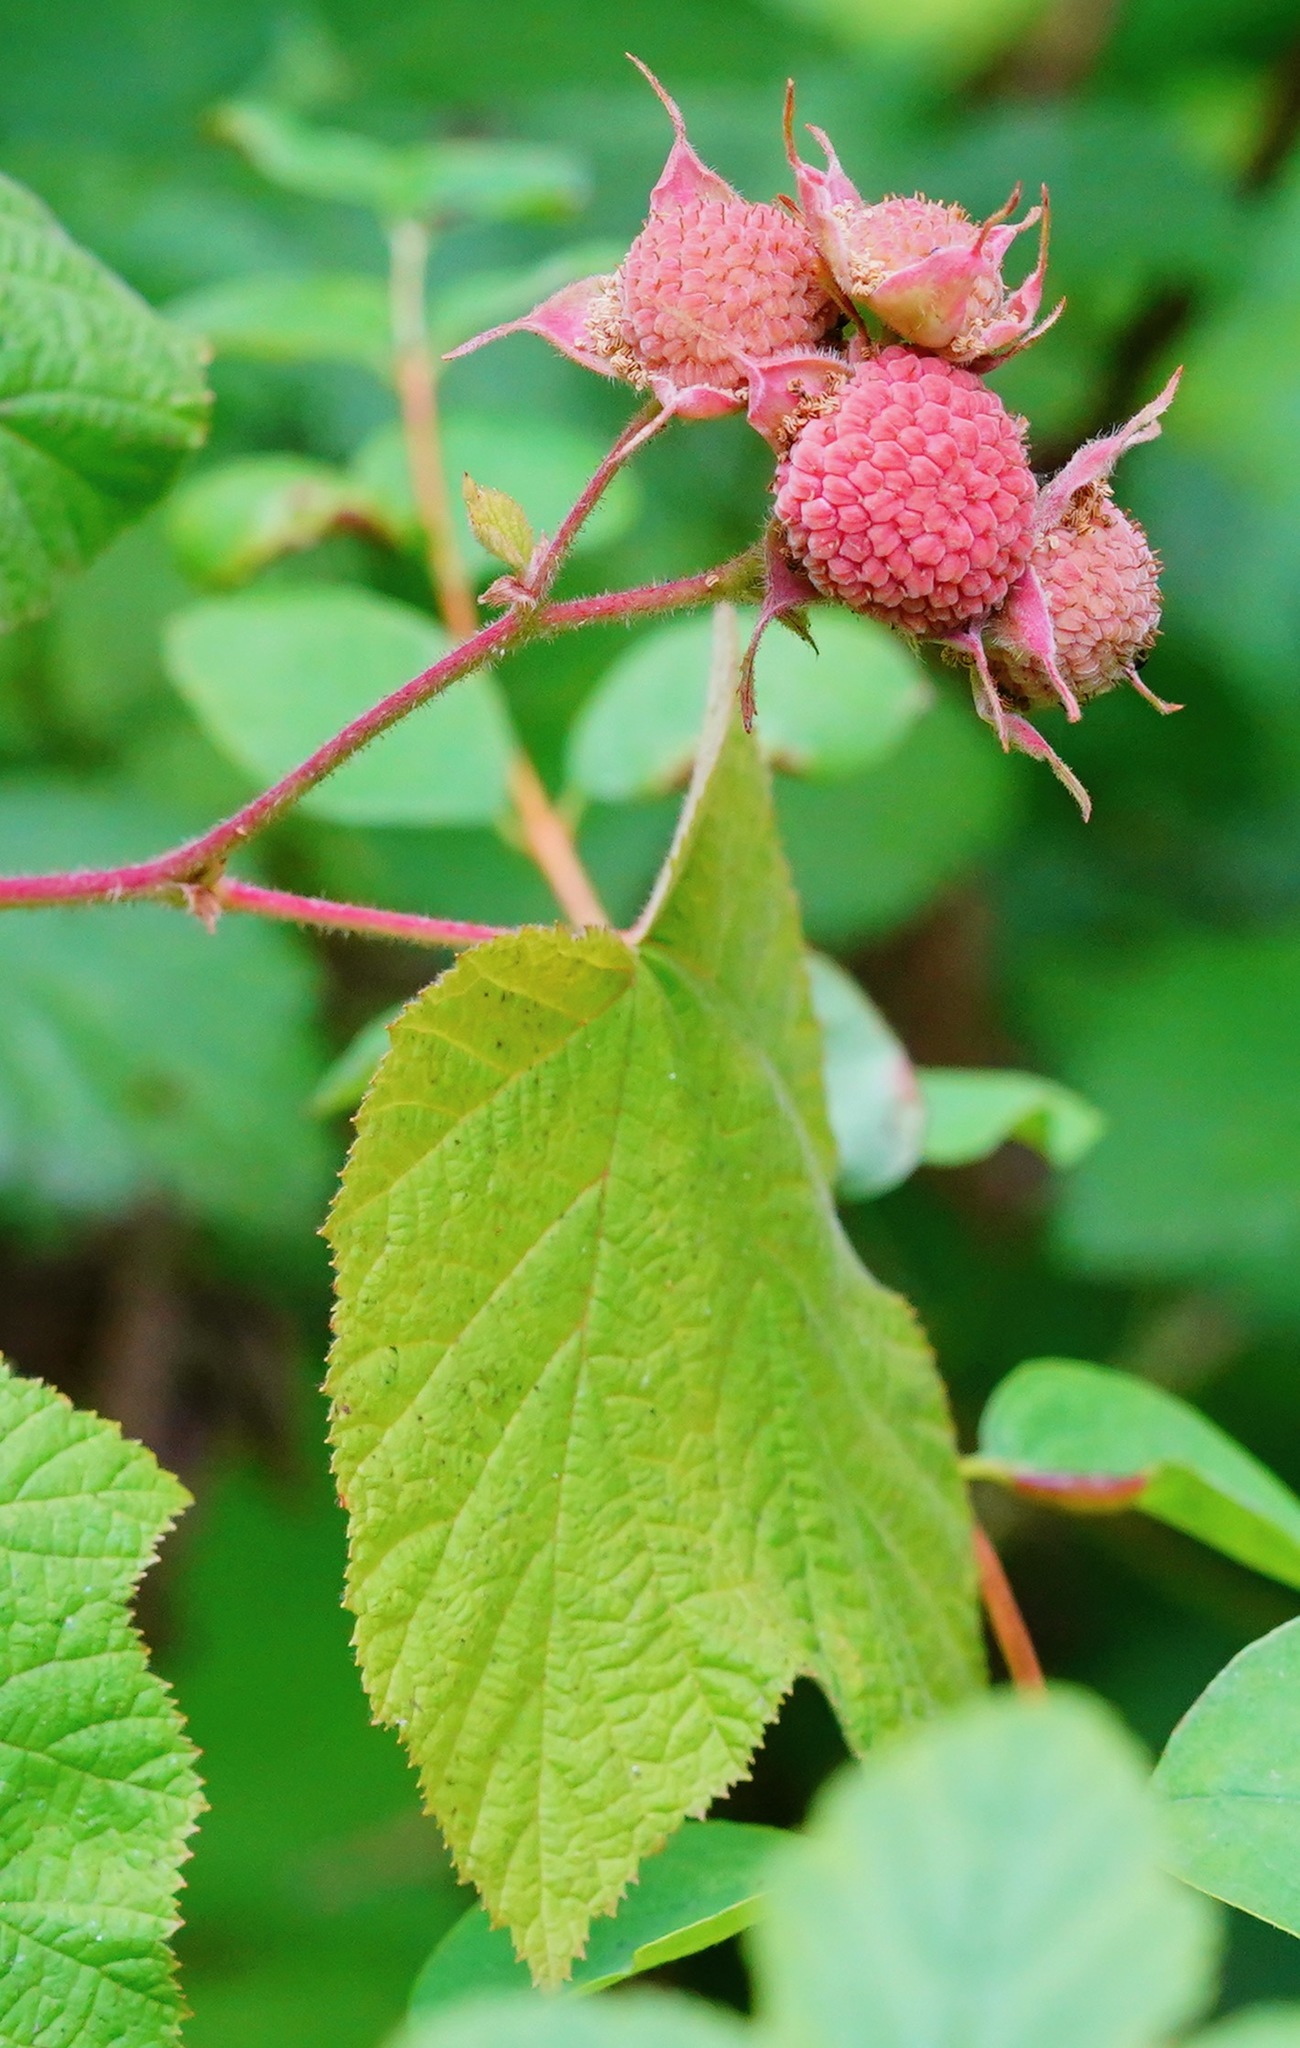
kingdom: Plantae
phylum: Tracheophyta
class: Magnoliopsida
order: Rosales
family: Rosaceae
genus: Rubus
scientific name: Rubus parviflorus
